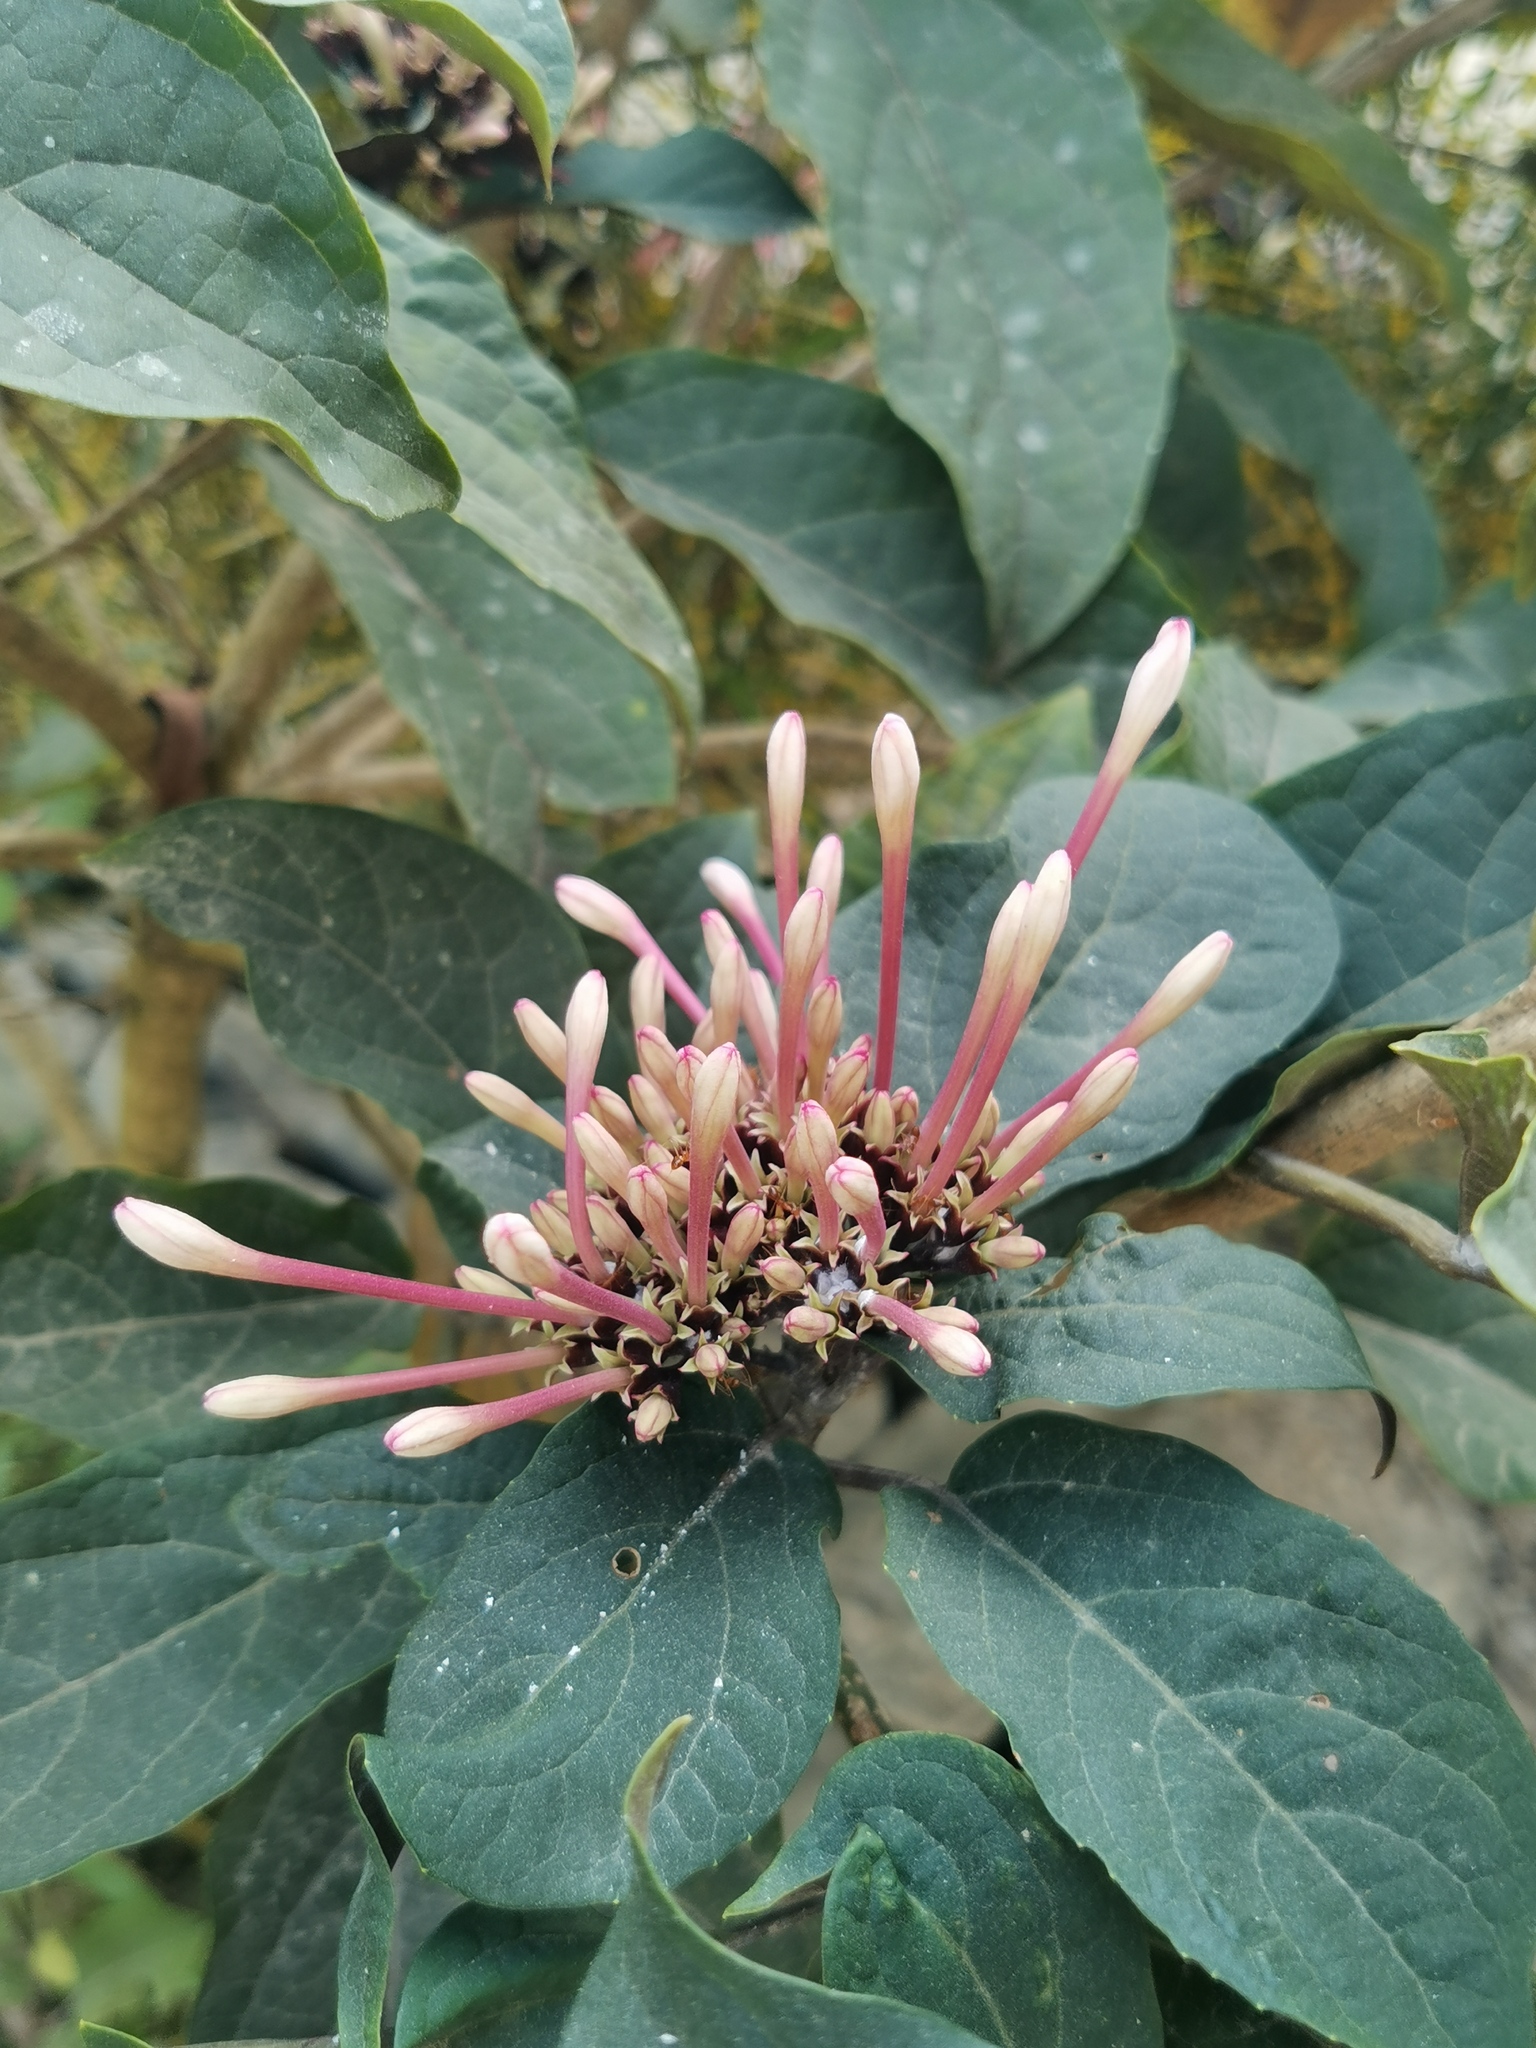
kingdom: Plantae
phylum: Tracheophyta
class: Magnoliopsida
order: Lamiales
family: Lamiaceae
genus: Clerodendrum
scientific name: Clerodendrum quadriloculare
